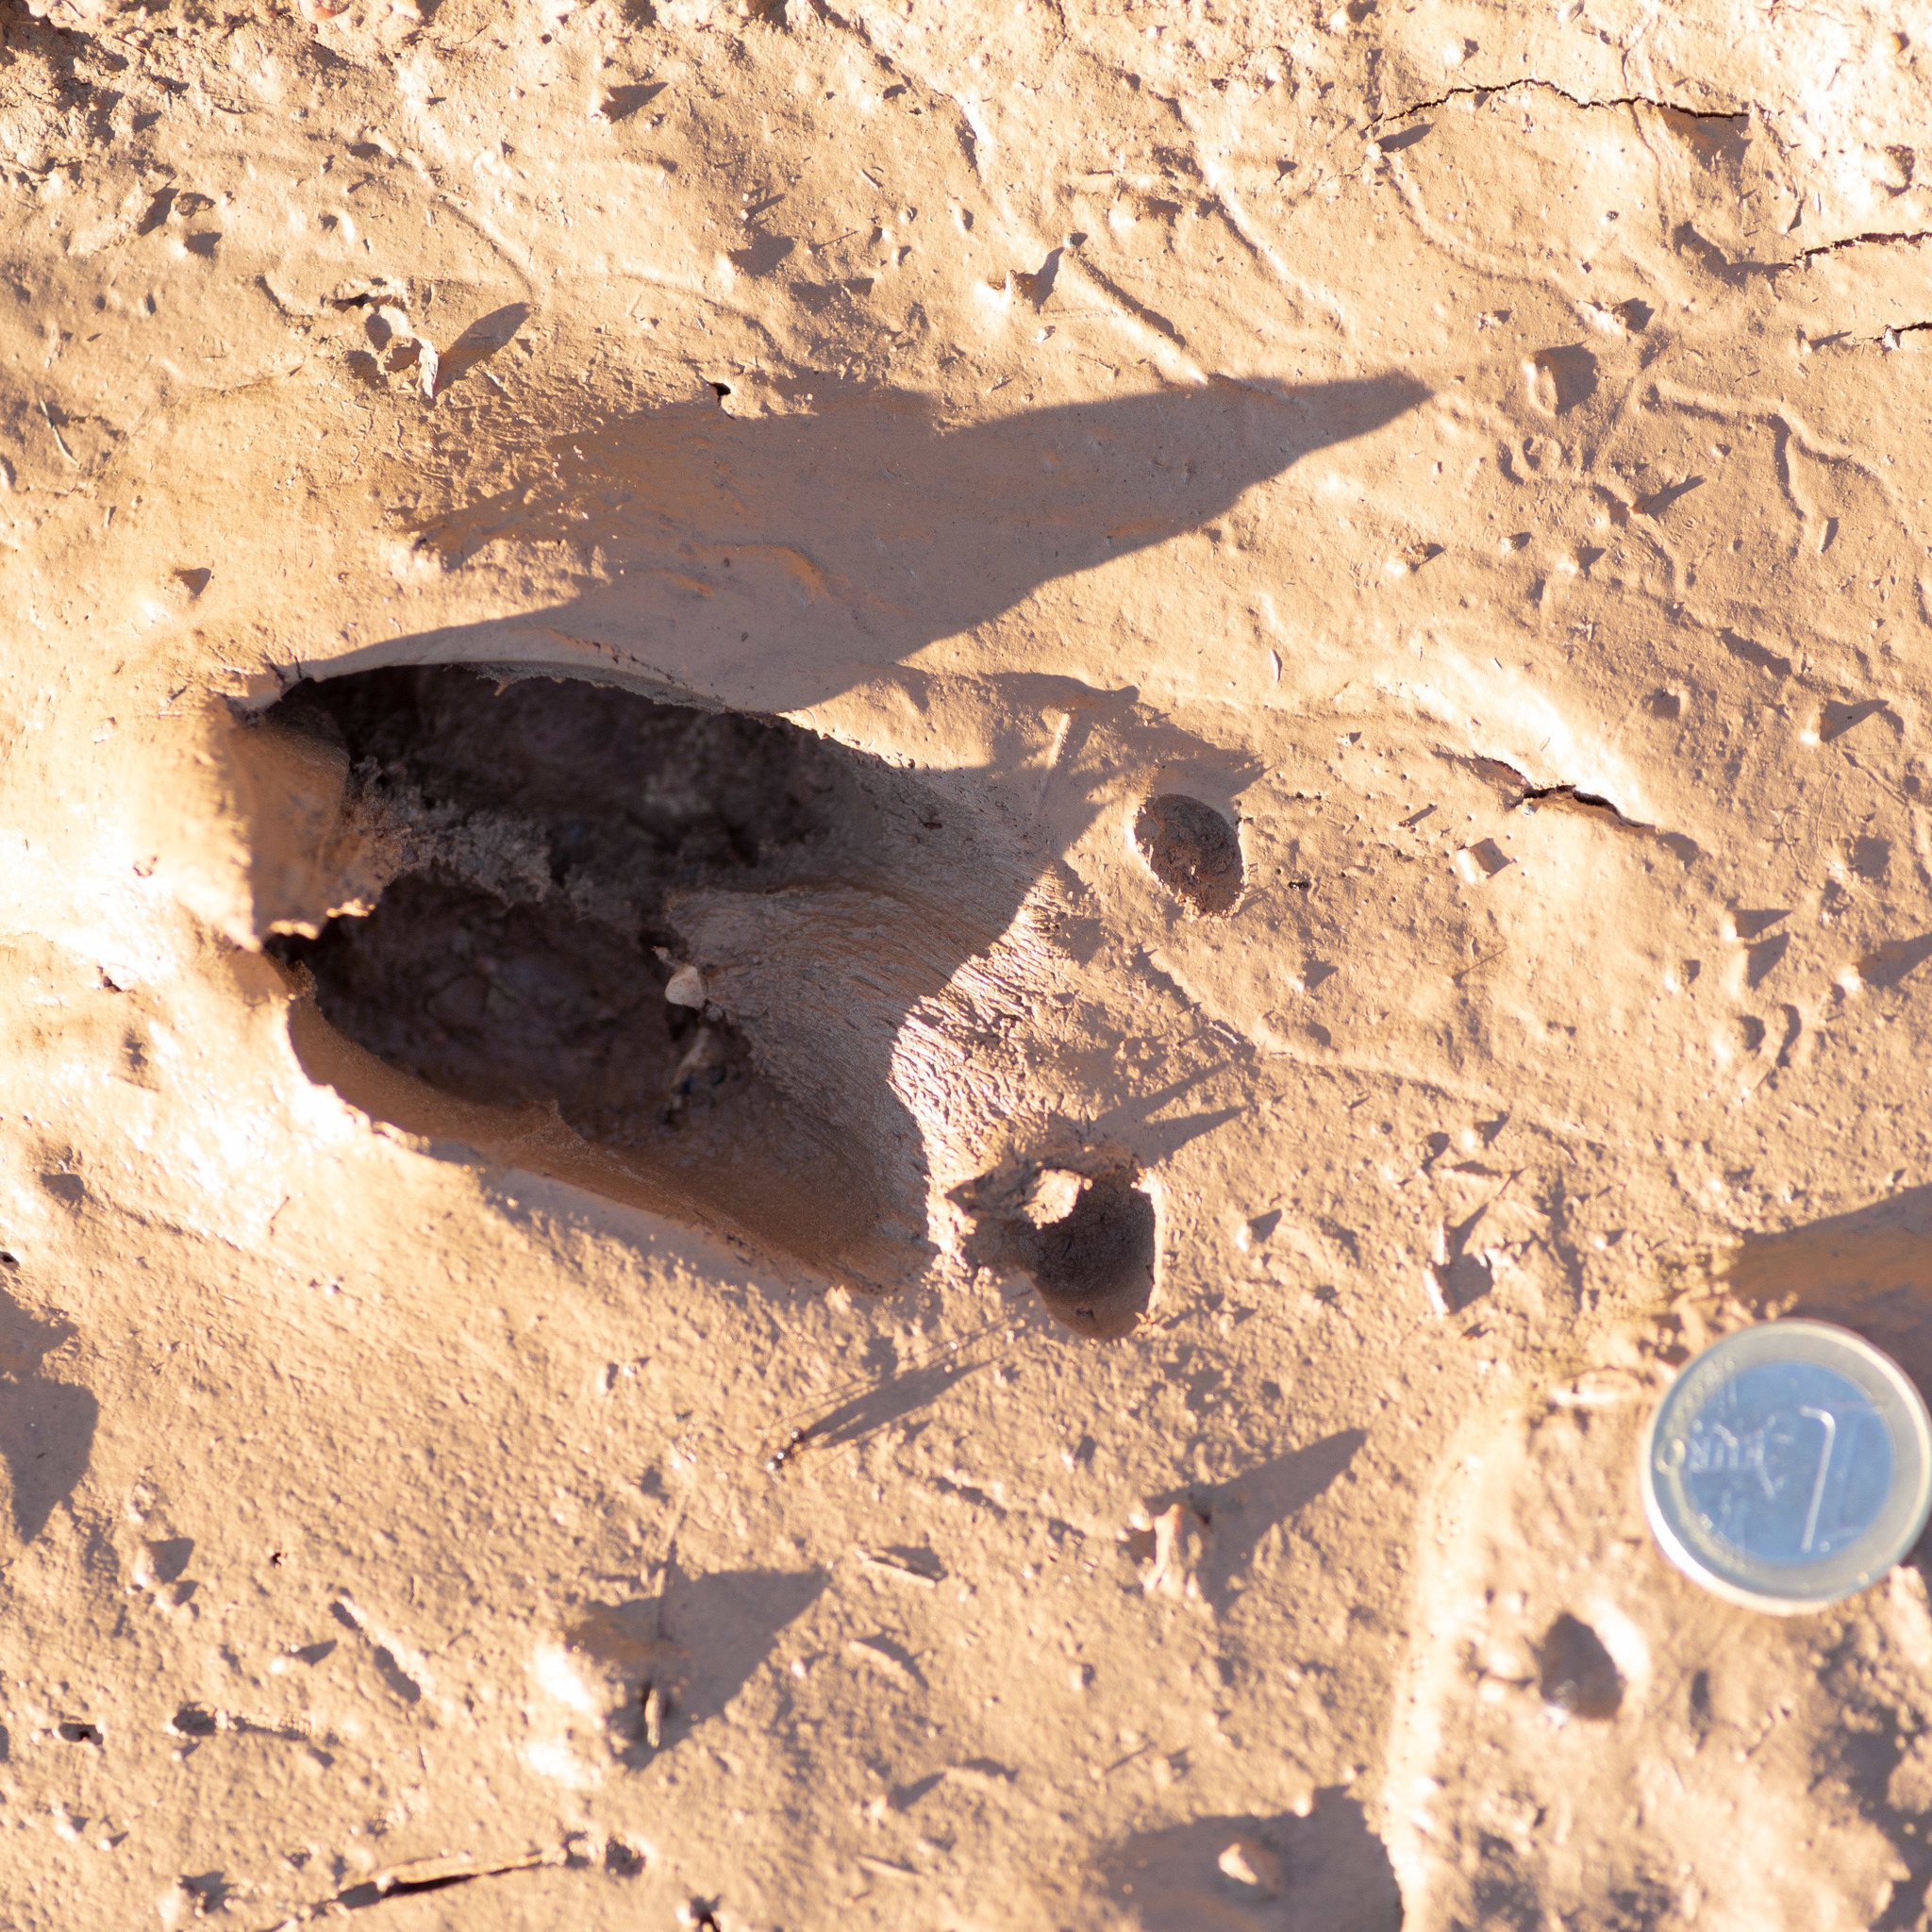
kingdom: Animalia
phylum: Chordata
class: Mammalia
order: Artiodactyla
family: Cervidae
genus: Capreolus
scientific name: Capreolus capreolus
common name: Western roe deer
